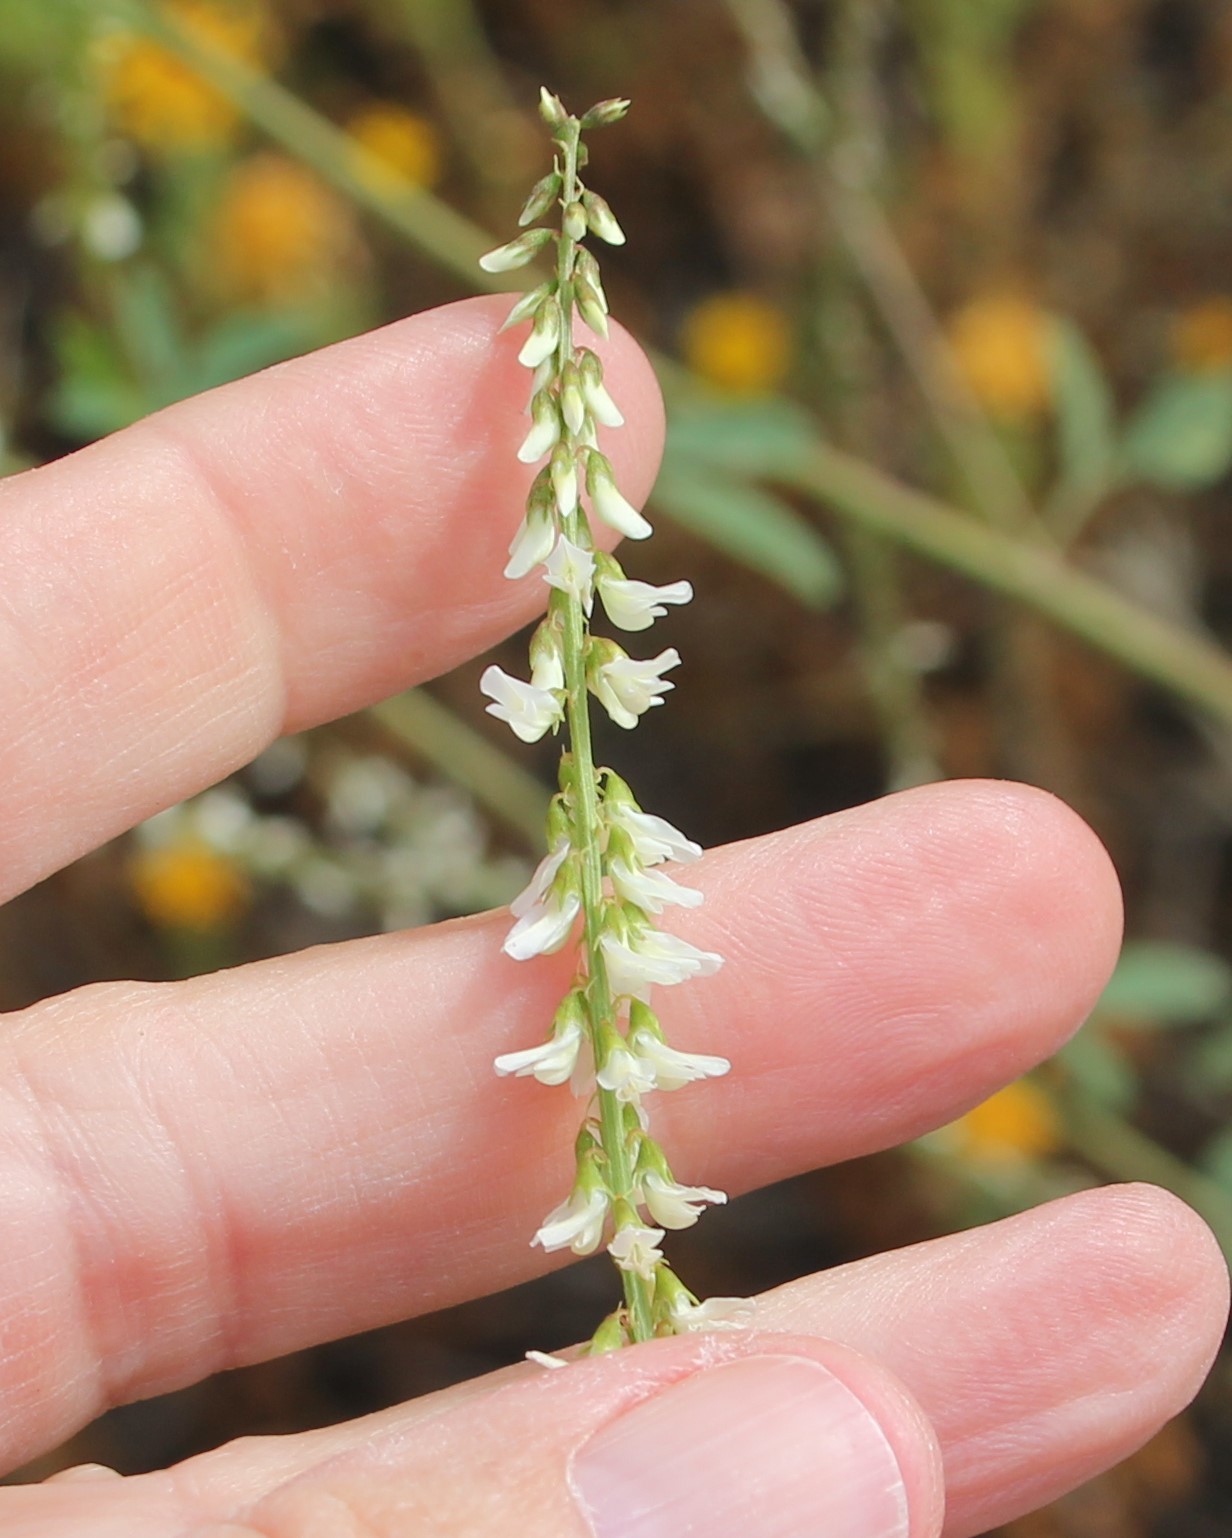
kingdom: Plantae
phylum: Tracheophyta
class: Magnoliopsida
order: Fabales
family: Fabaceae
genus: Melilotus
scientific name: Melilotus albus
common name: White melilot
